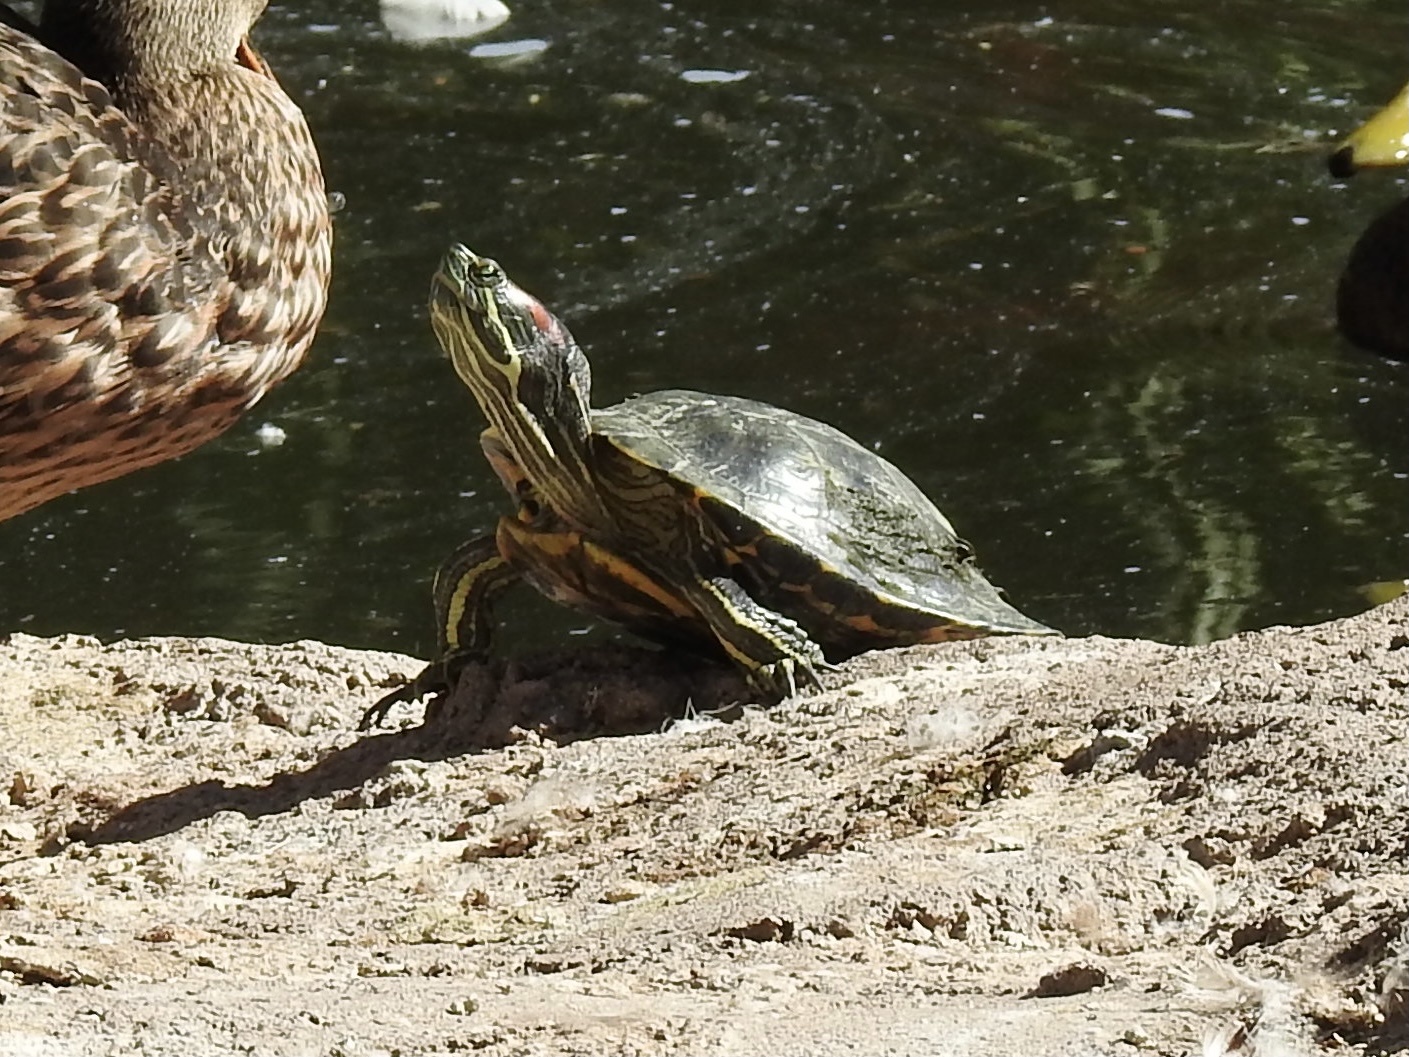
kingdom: Animalia
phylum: Chordata
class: Testudines
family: Emydidae
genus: Trachemys
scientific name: Trachemys scripta
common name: Slider
